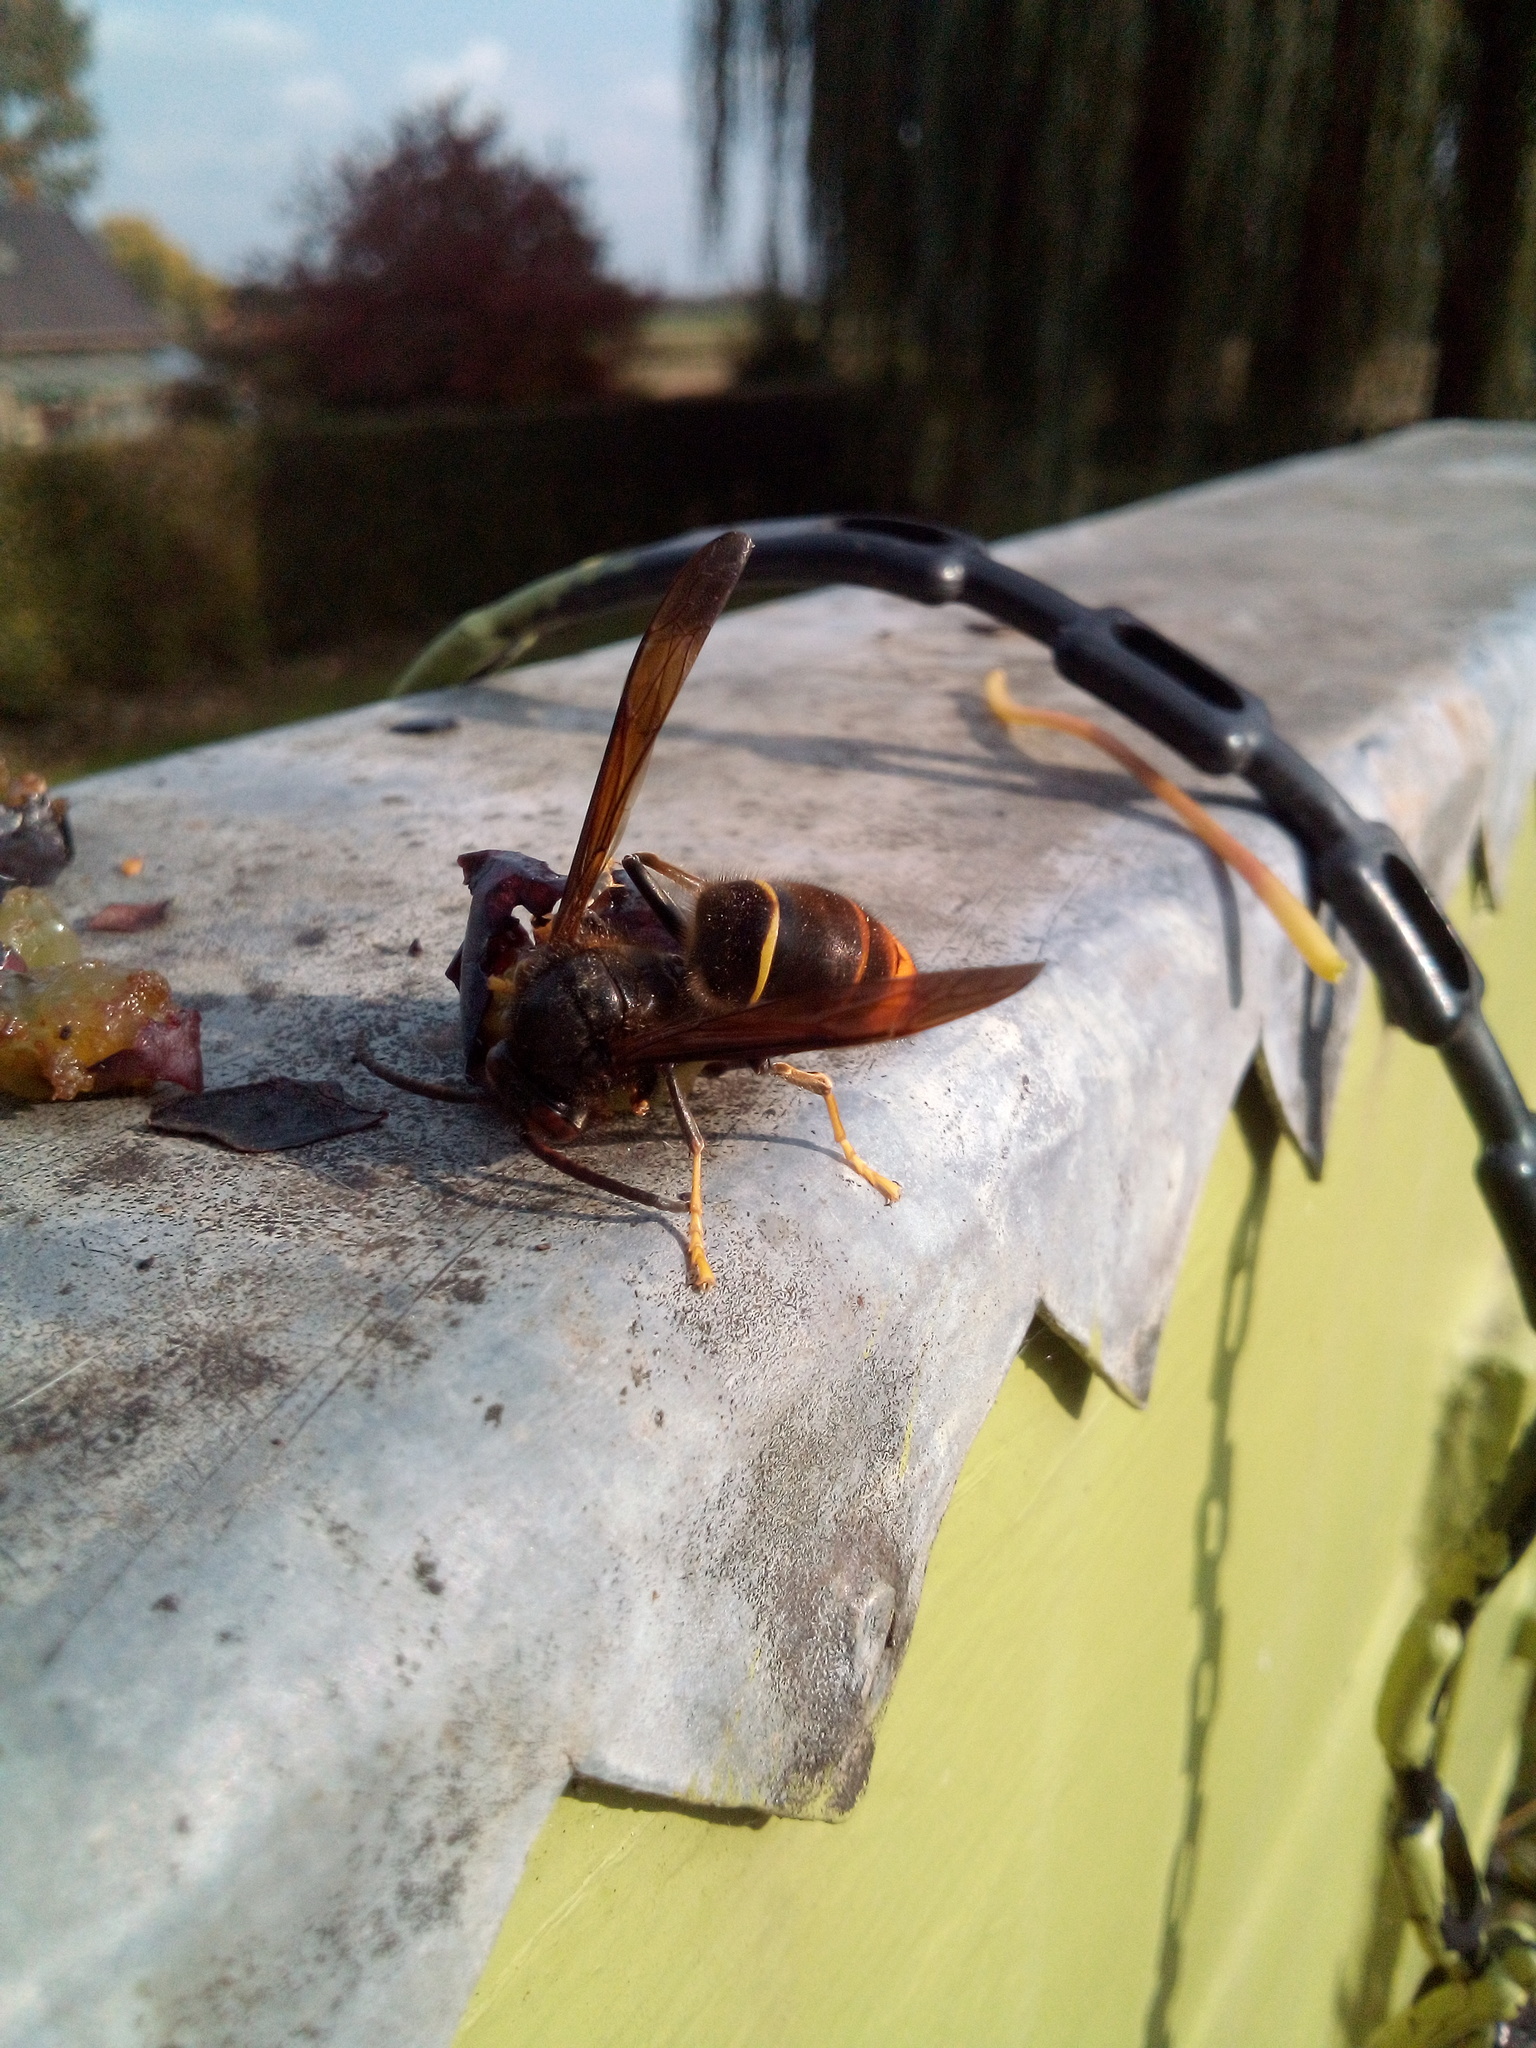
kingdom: Animalia
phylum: Arthropoda
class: Insecta
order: Hymenoptera
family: Vespidae
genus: Vespa
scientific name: Vespa velutina
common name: Asian hornet
